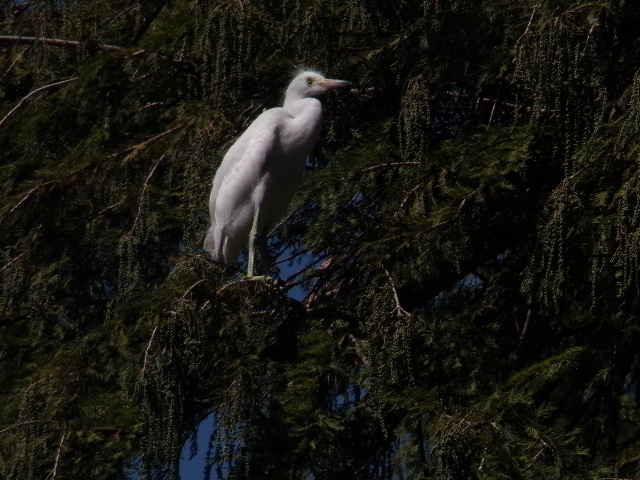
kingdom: Animalia
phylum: Chordata
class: Aves
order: Pelecaniformes
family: Ardeidae
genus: Bubulcus
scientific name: Bubulcus ibis
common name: Cattle egret
